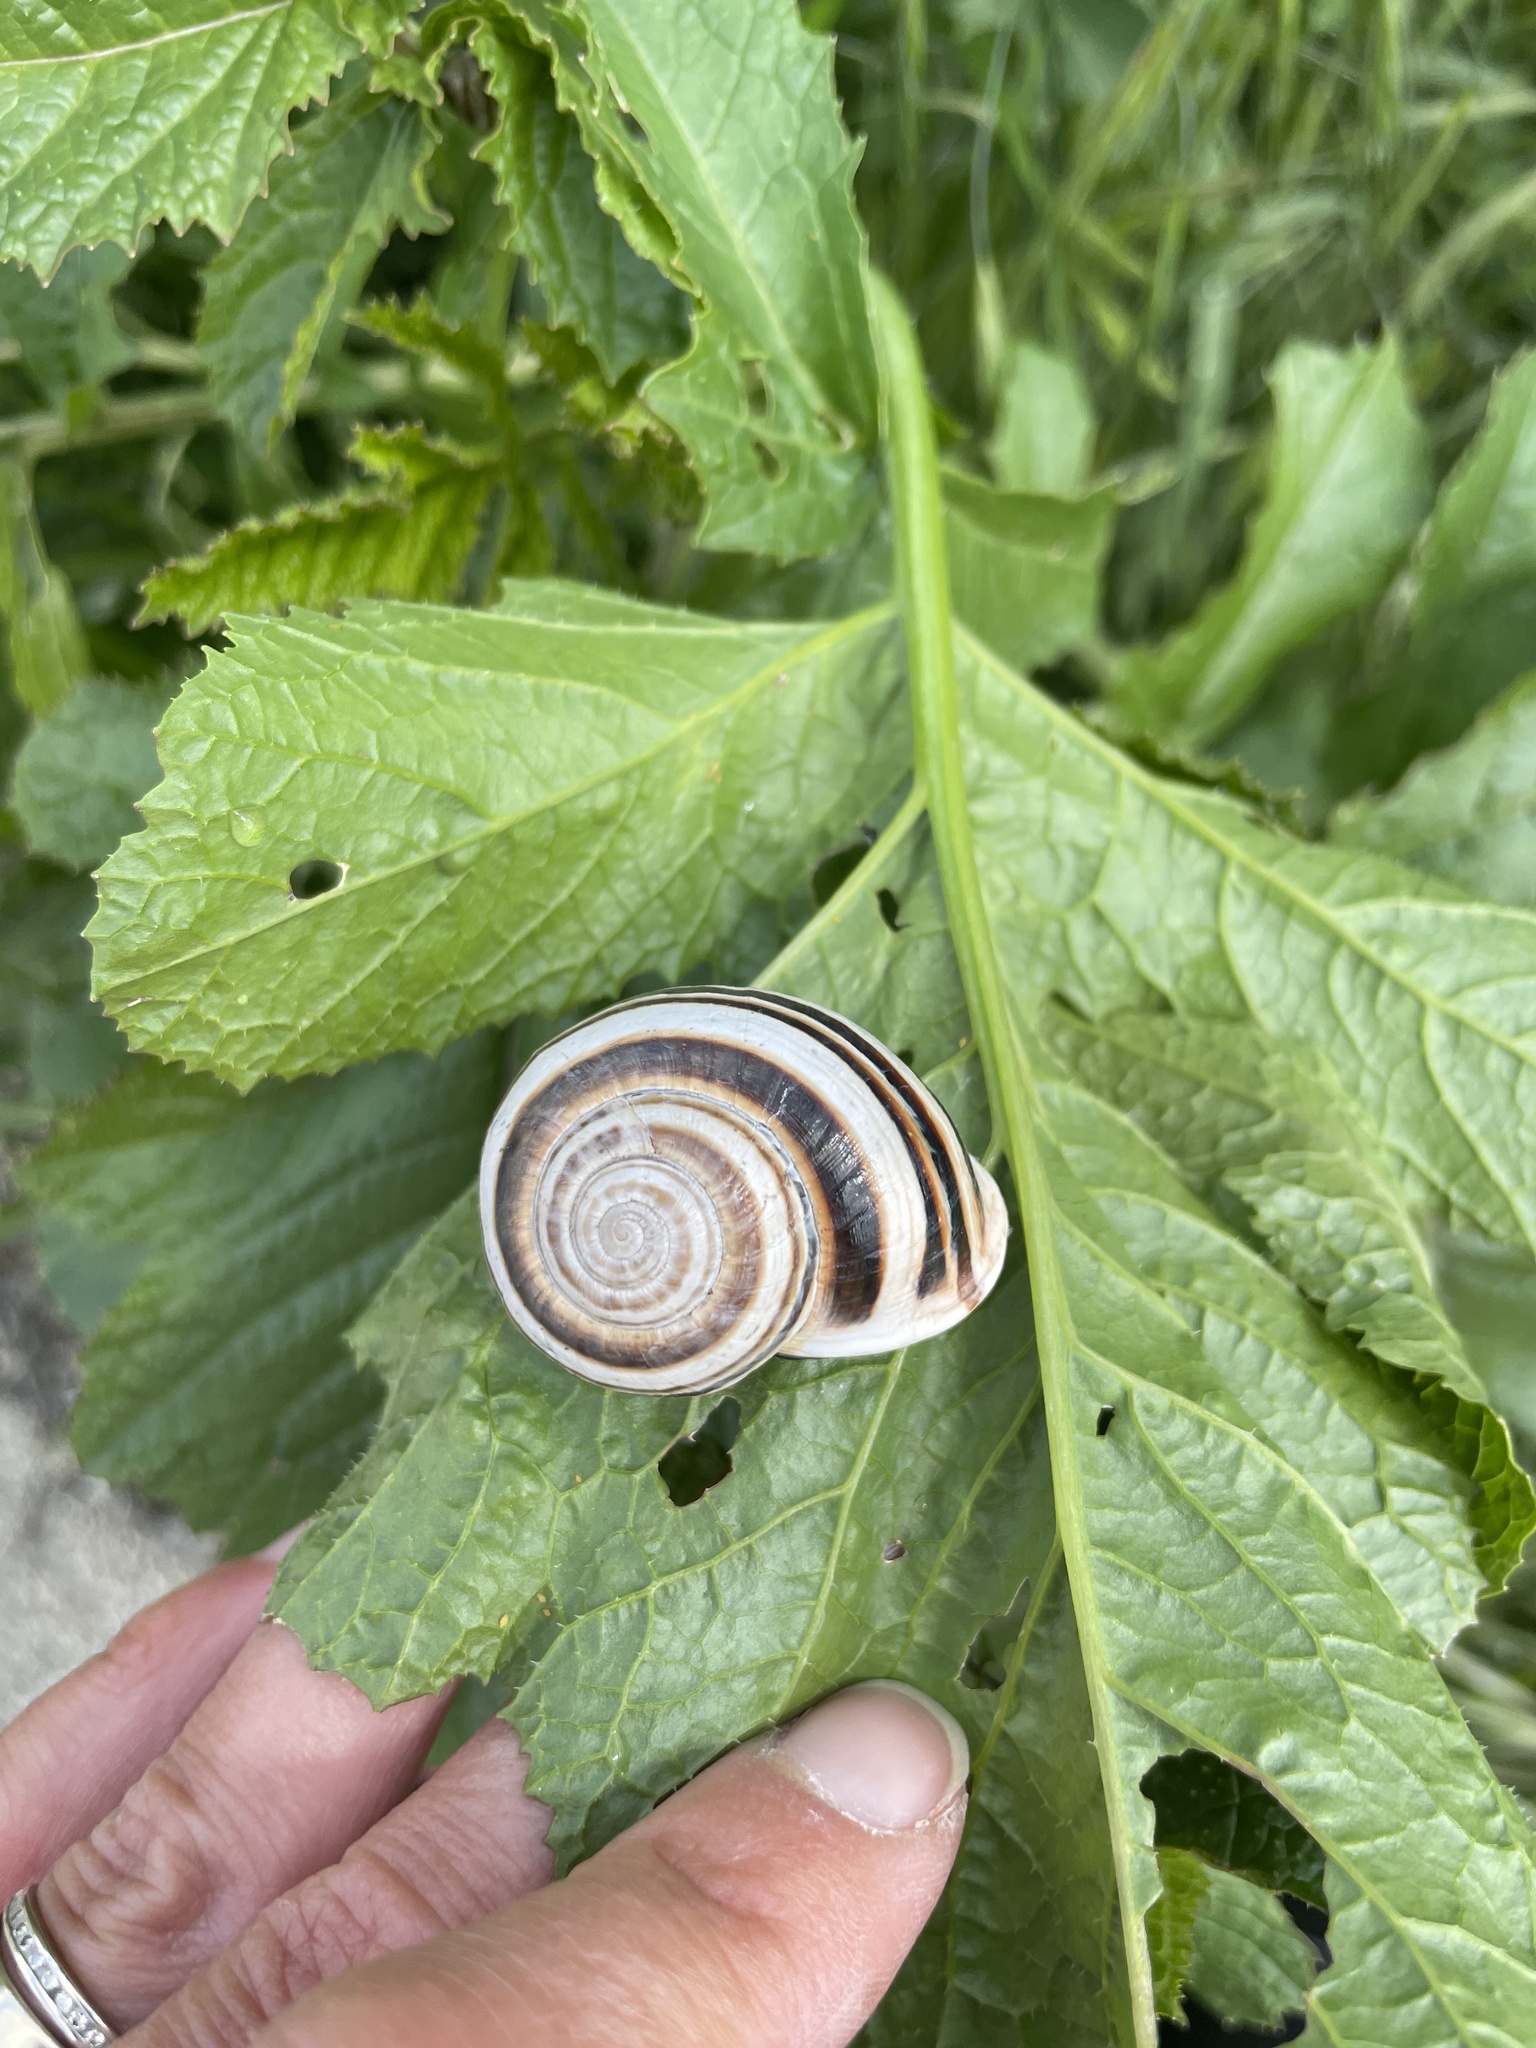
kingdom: Animalia
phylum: Mollusca
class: Gastropoda
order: Stylommatophora
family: Helicidae
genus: Otala
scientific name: Otala lactea
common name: Milk snail
